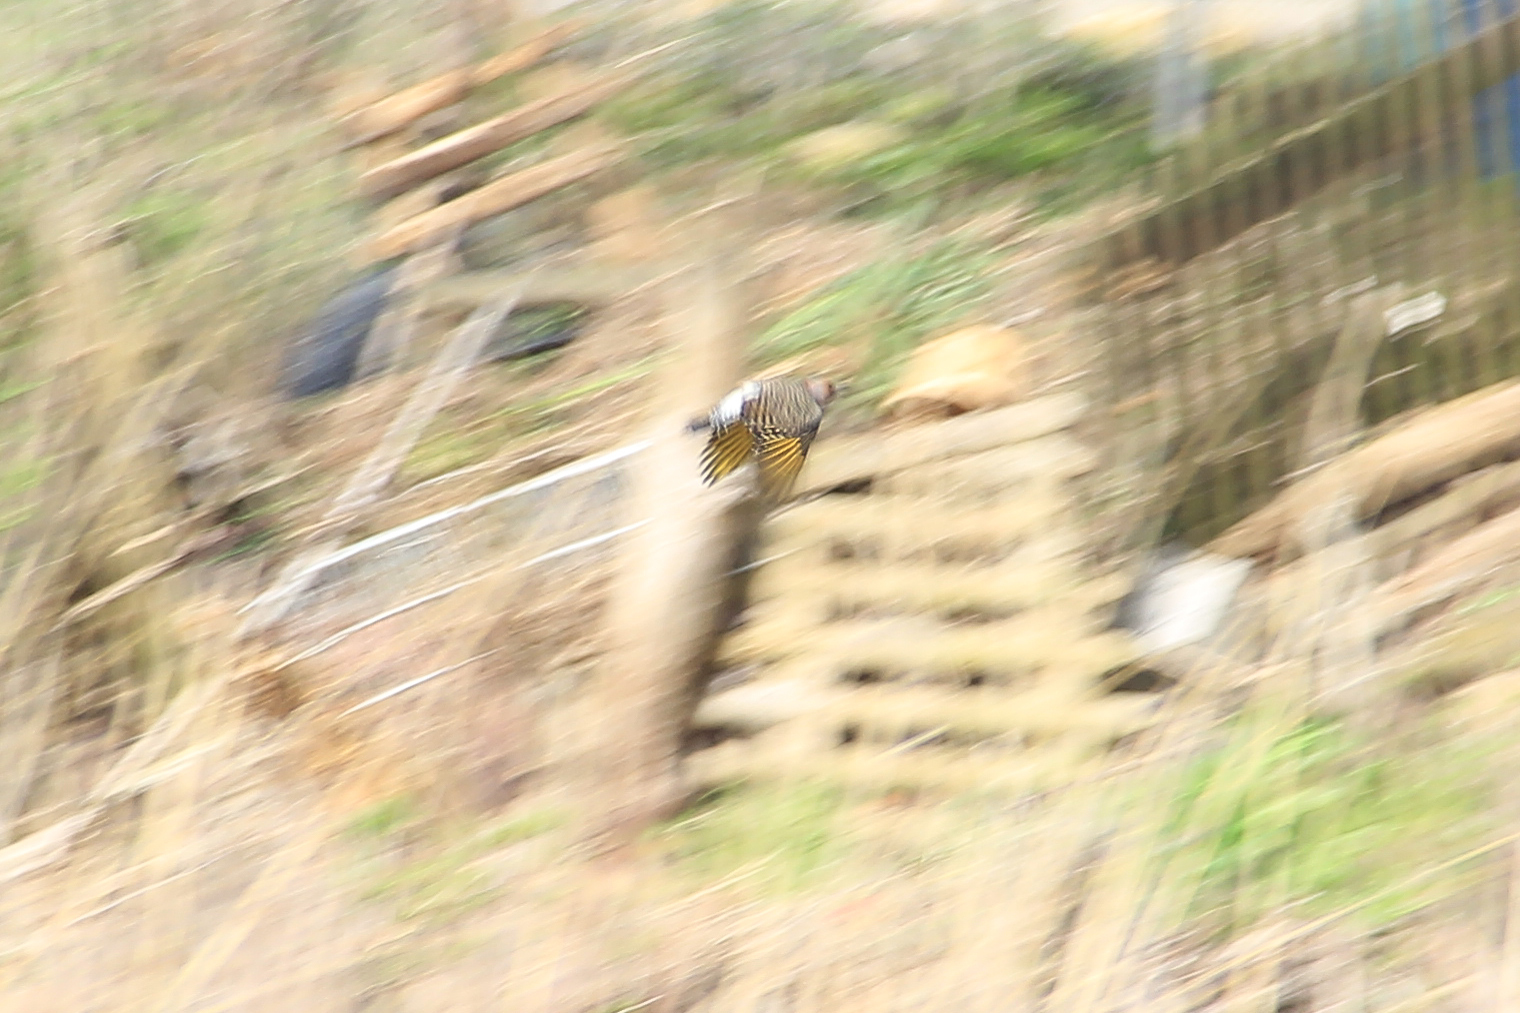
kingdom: Animalia
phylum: Chordata
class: Aves
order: Piciformes
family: Picidae
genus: Colaptes
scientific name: Colaptes auratus
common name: Northern flicker
